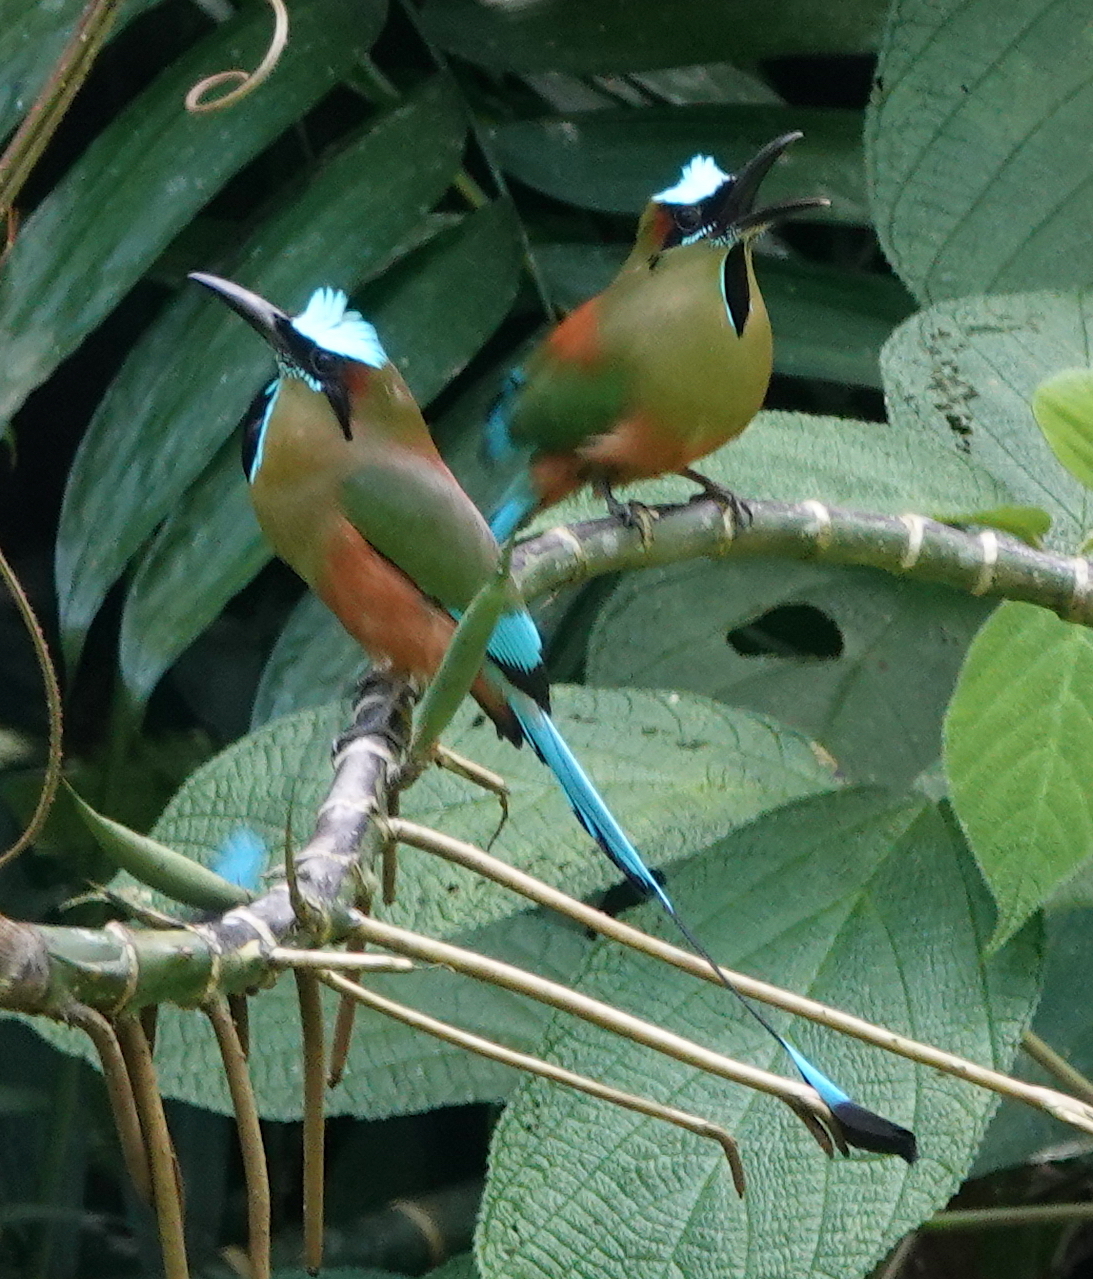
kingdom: Animalia
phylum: Chordata
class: Aves
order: Coraciiformes
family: Momotidae
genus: Eumomota
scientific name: Eumomota superciliosa
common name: Turquoise-browed motmot
